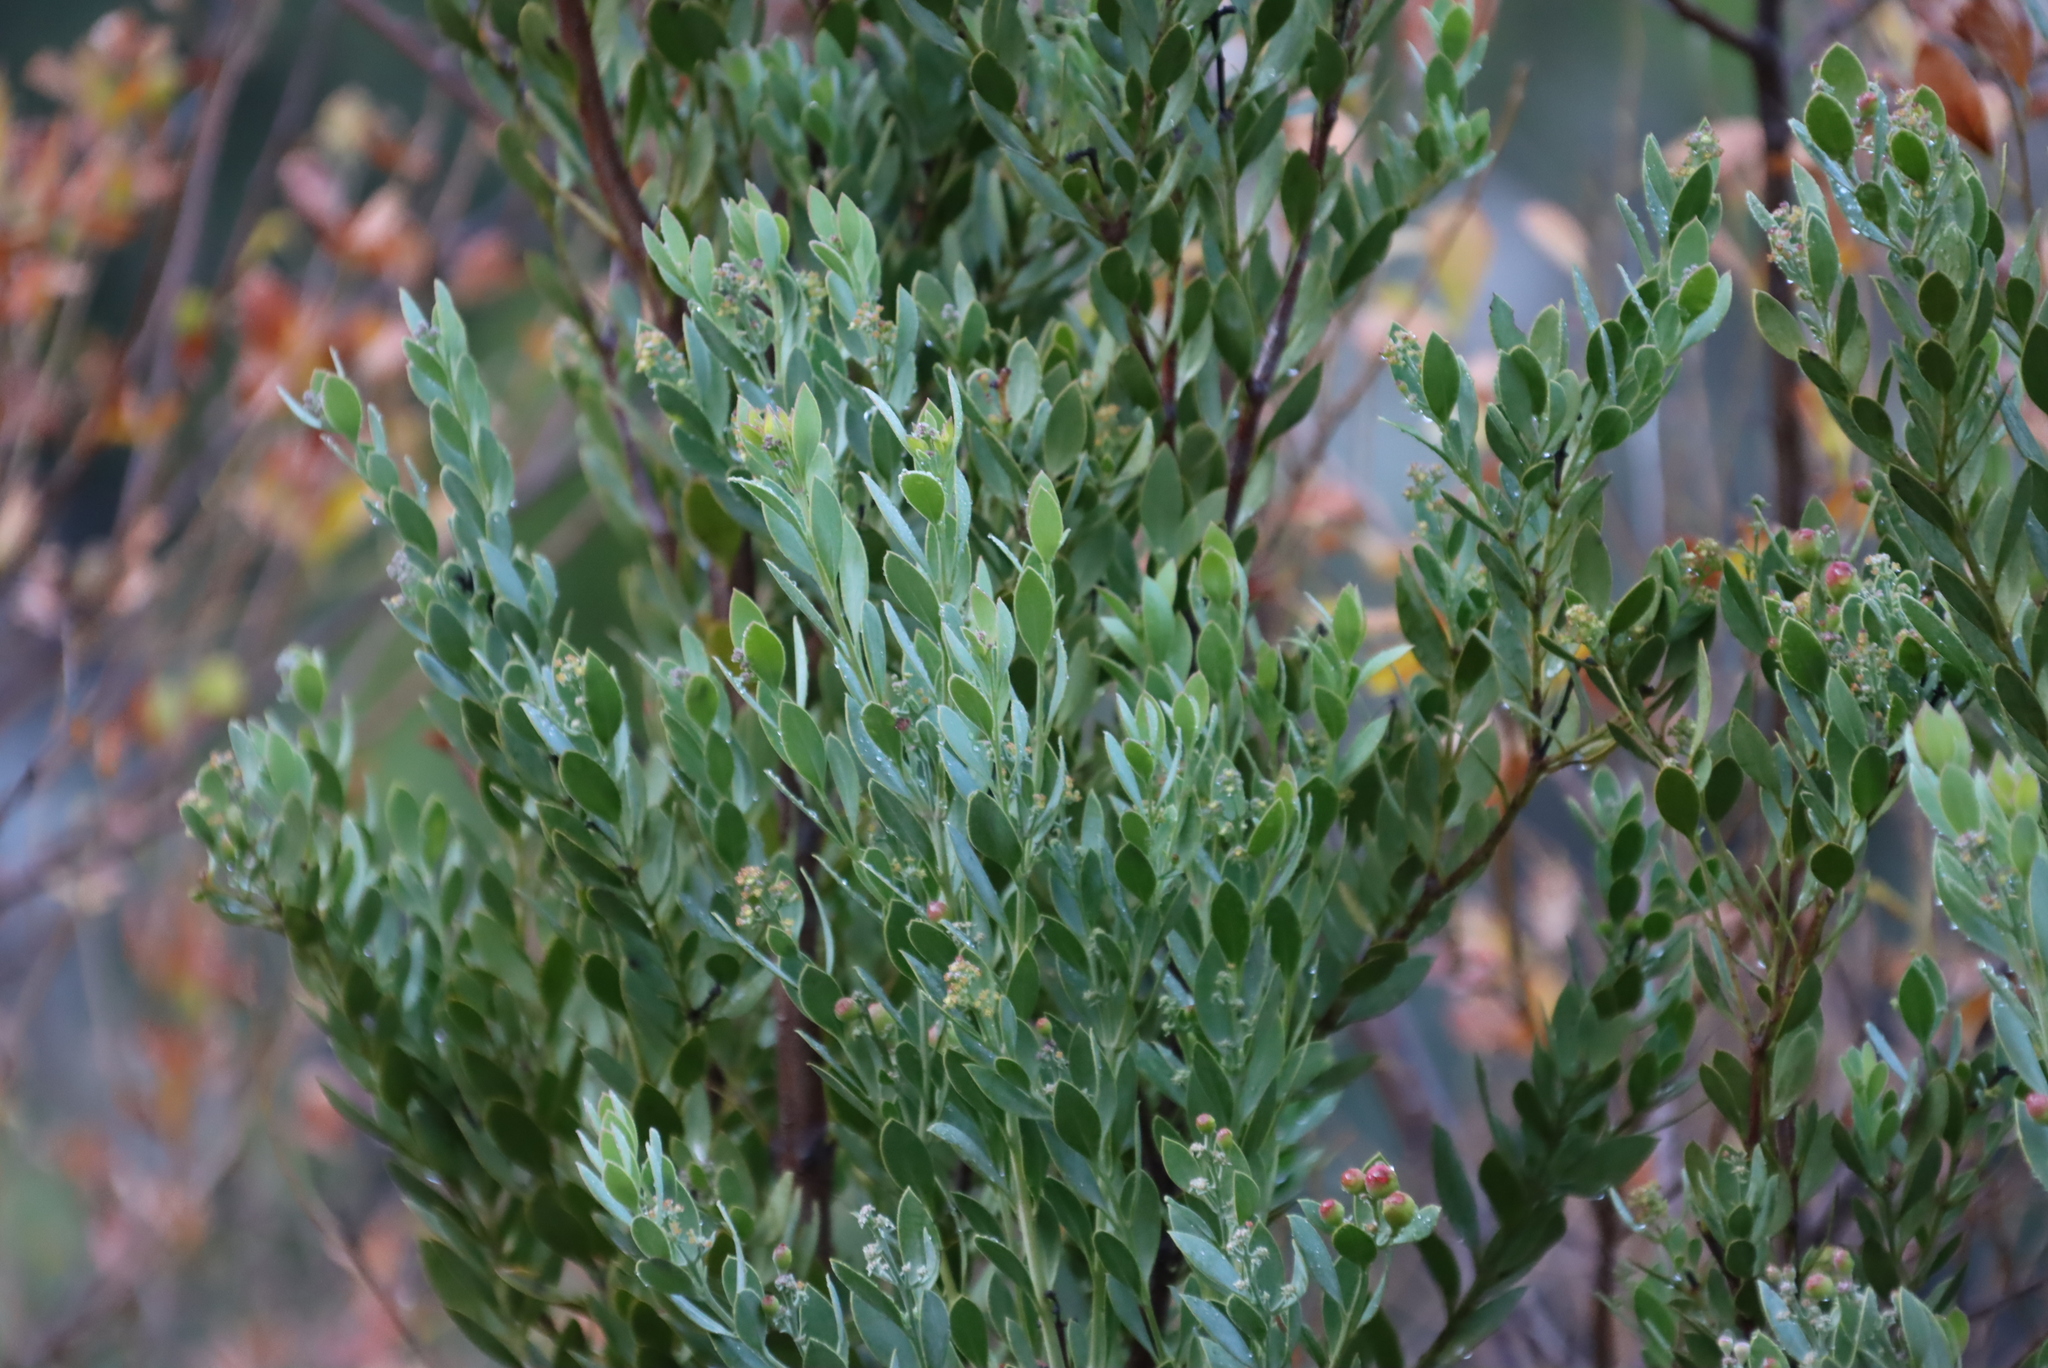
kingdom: Plantae
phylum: Tracheophyta
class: Magnoliopsida
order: Santalales
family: Santalaceae
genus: Osyris
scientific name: Osyris compressa
